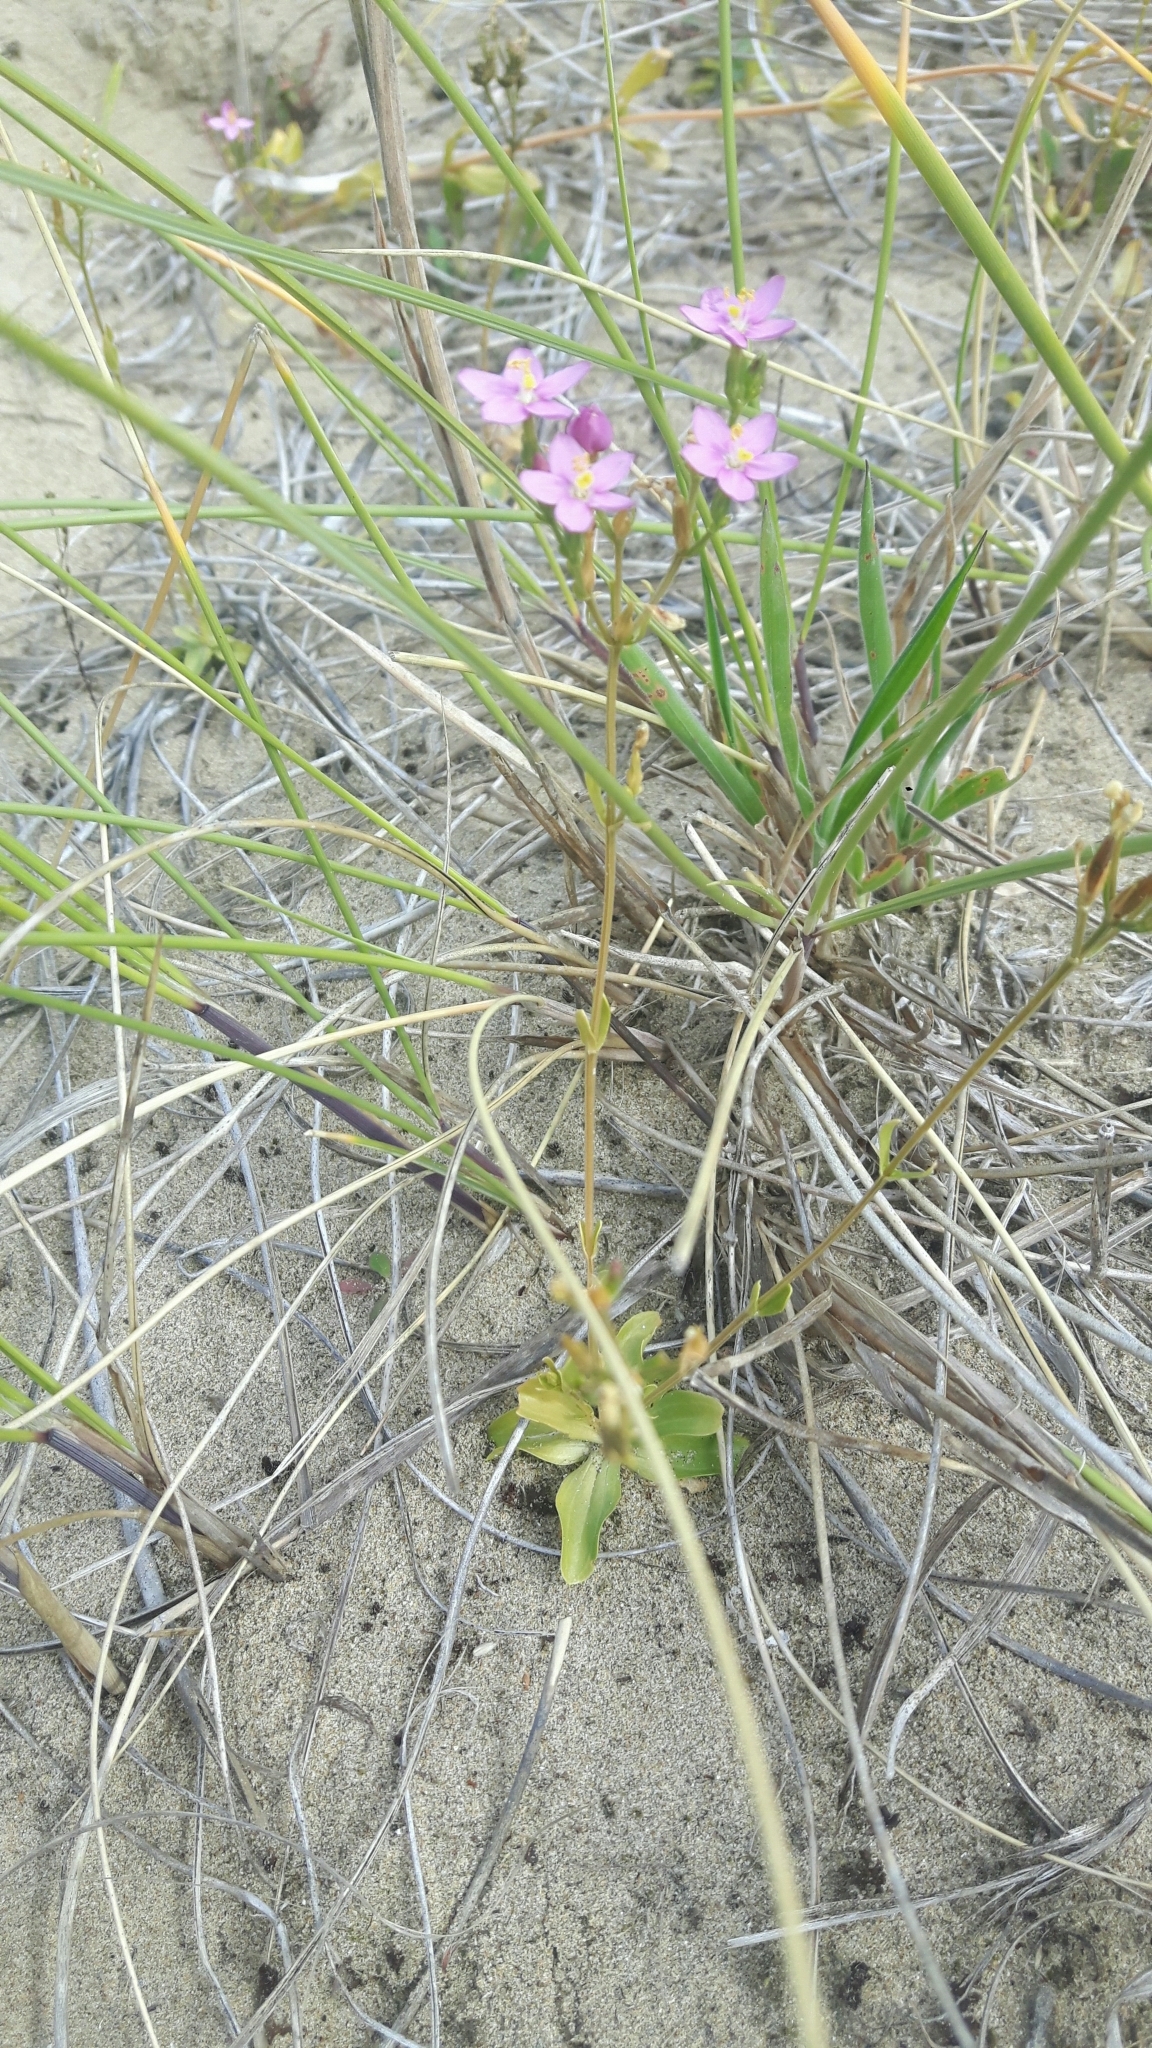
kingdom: Plantae
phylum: Tracheophyta
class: Magnoliopsida
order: Gentianales
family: Gentianaceae
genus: Centaurium
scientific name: Centaurium erythraea
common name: Common centaury
